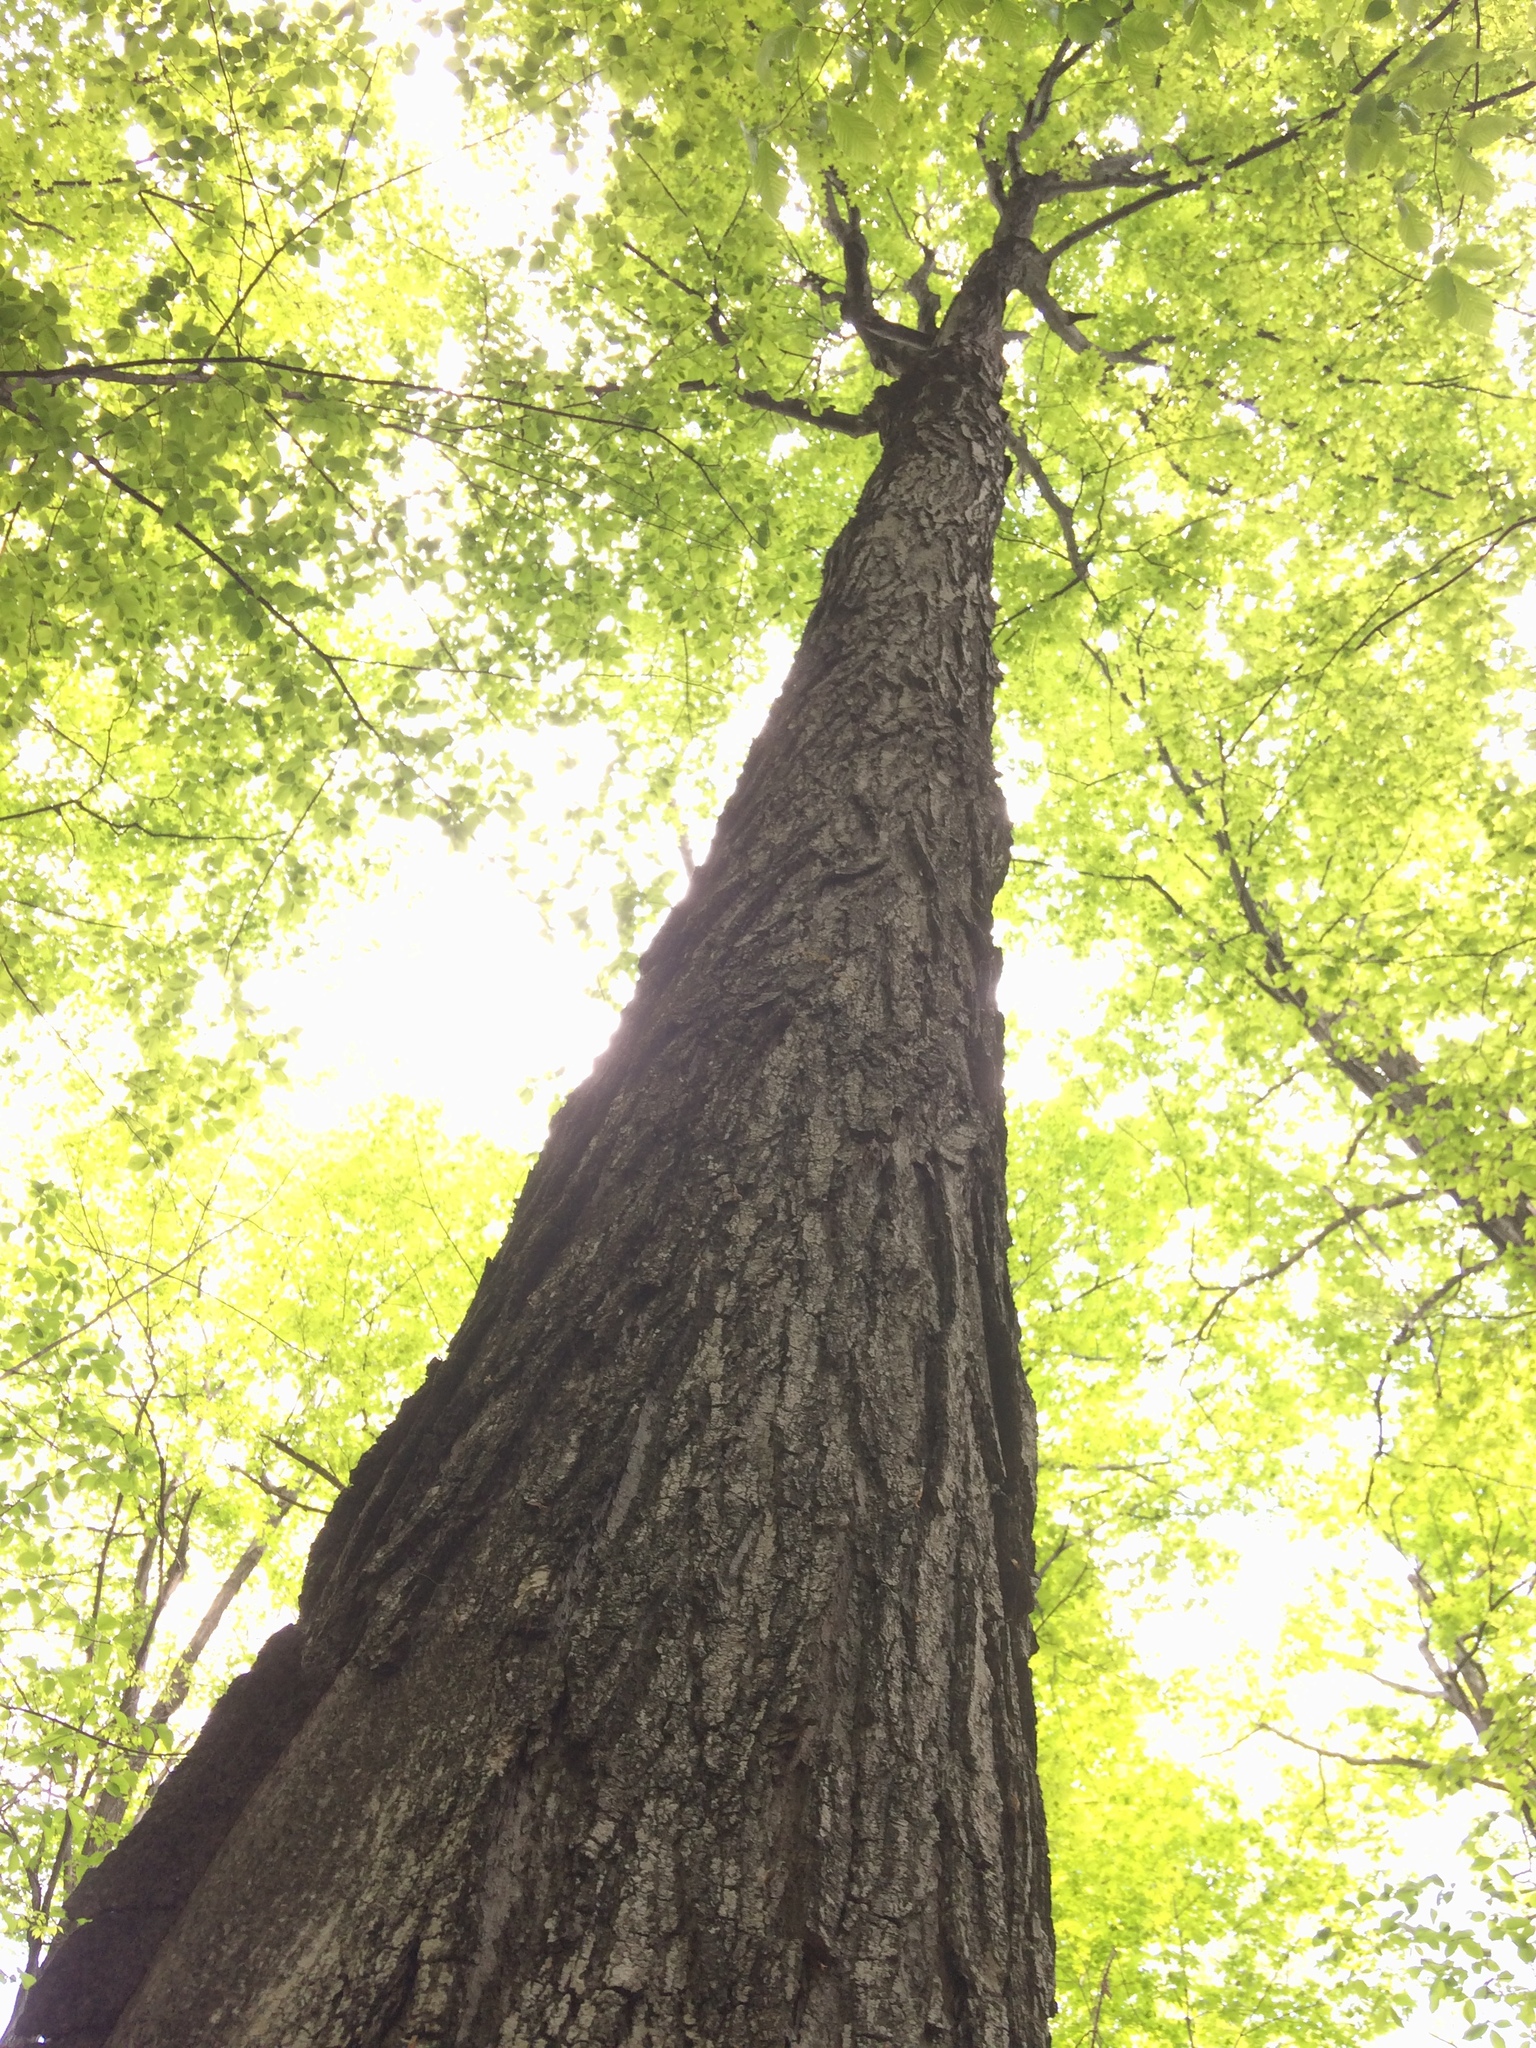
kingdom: Plantae
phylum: Tracheophyta
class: Magnoliopsida
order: Sapindales
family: Sapindaceae
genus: Acer
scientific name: Acer saccharum
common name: Sugar maple
